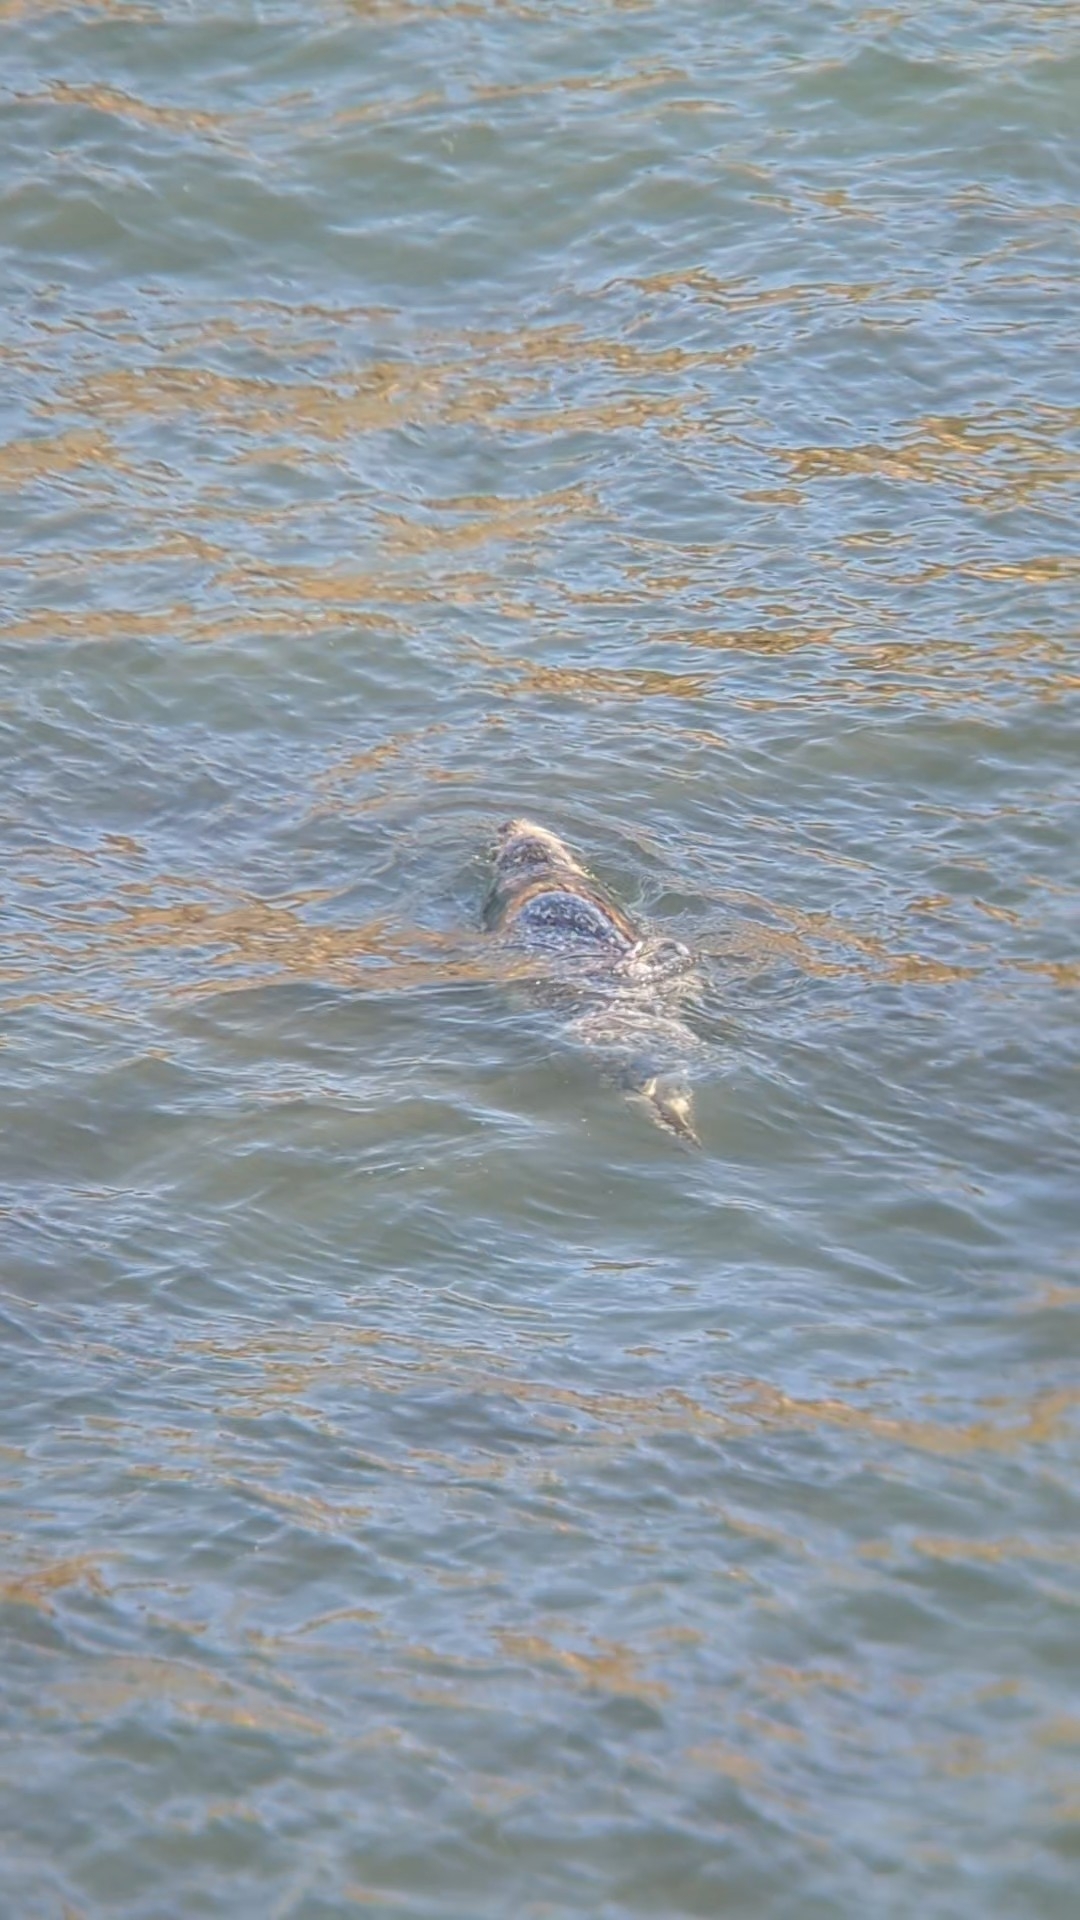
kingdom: Animalia
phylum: Chordata
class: Mammalia
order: Carnivora
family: Phocidae
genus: Phoca
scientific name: Phoca vitulina
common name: Harbor seal
